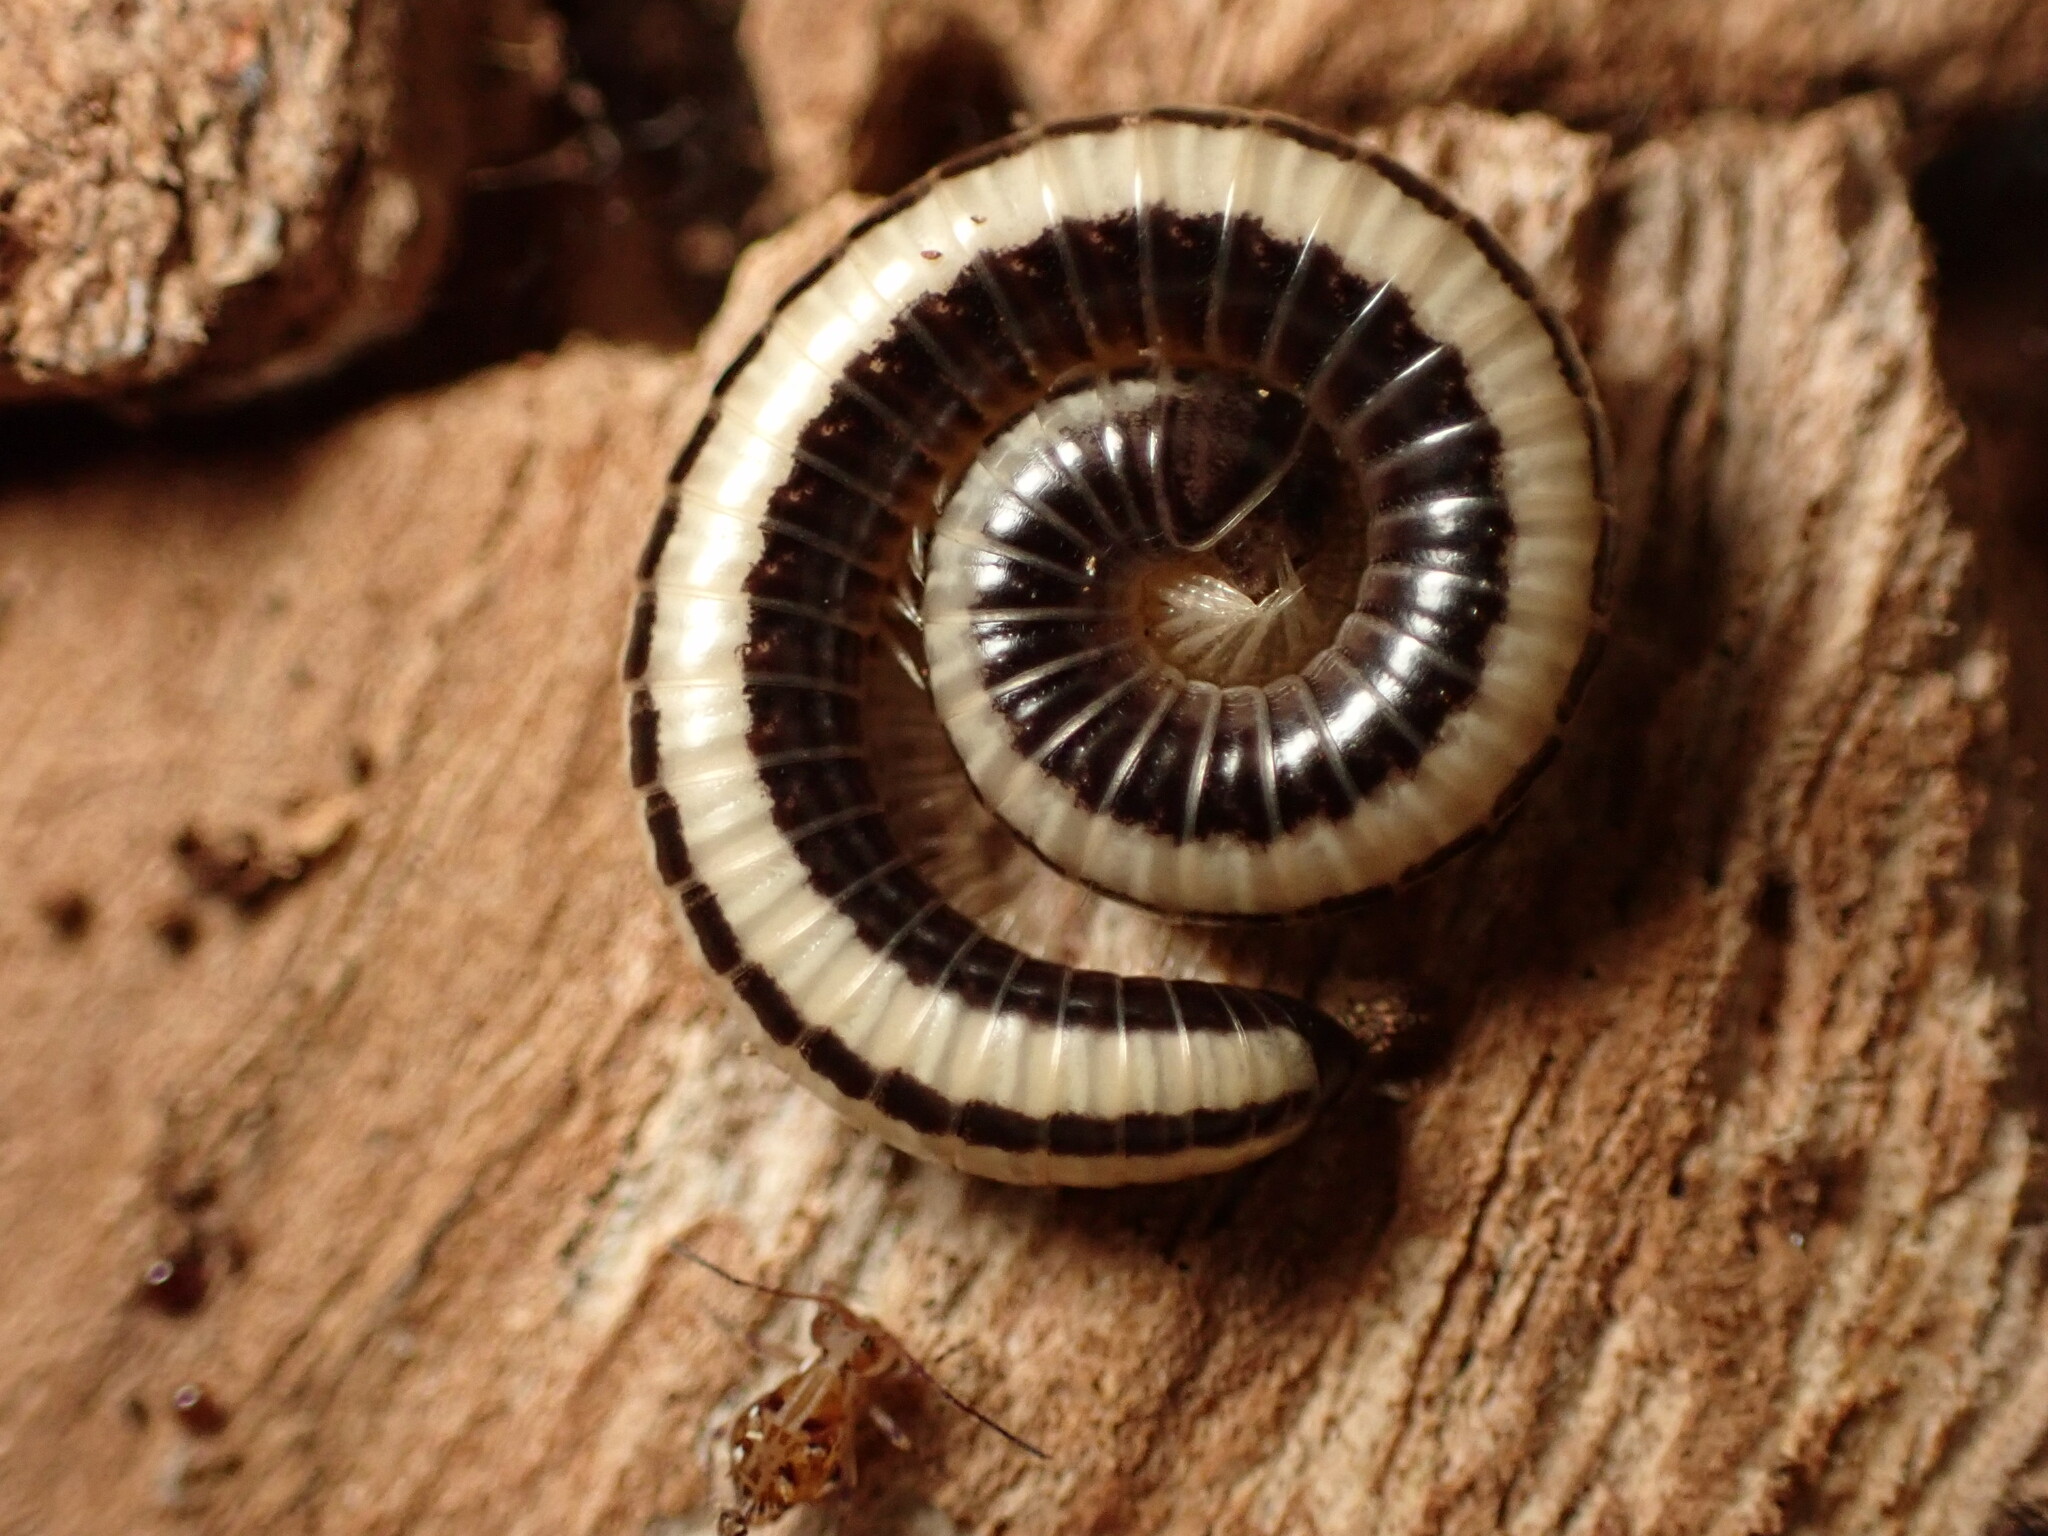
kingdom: Animalia
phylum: Arthropoda
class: Diplopoda
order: Spirobolida
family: Spirobolellidae
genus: Spirobolellus
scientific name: Spirobolellus immigrans
